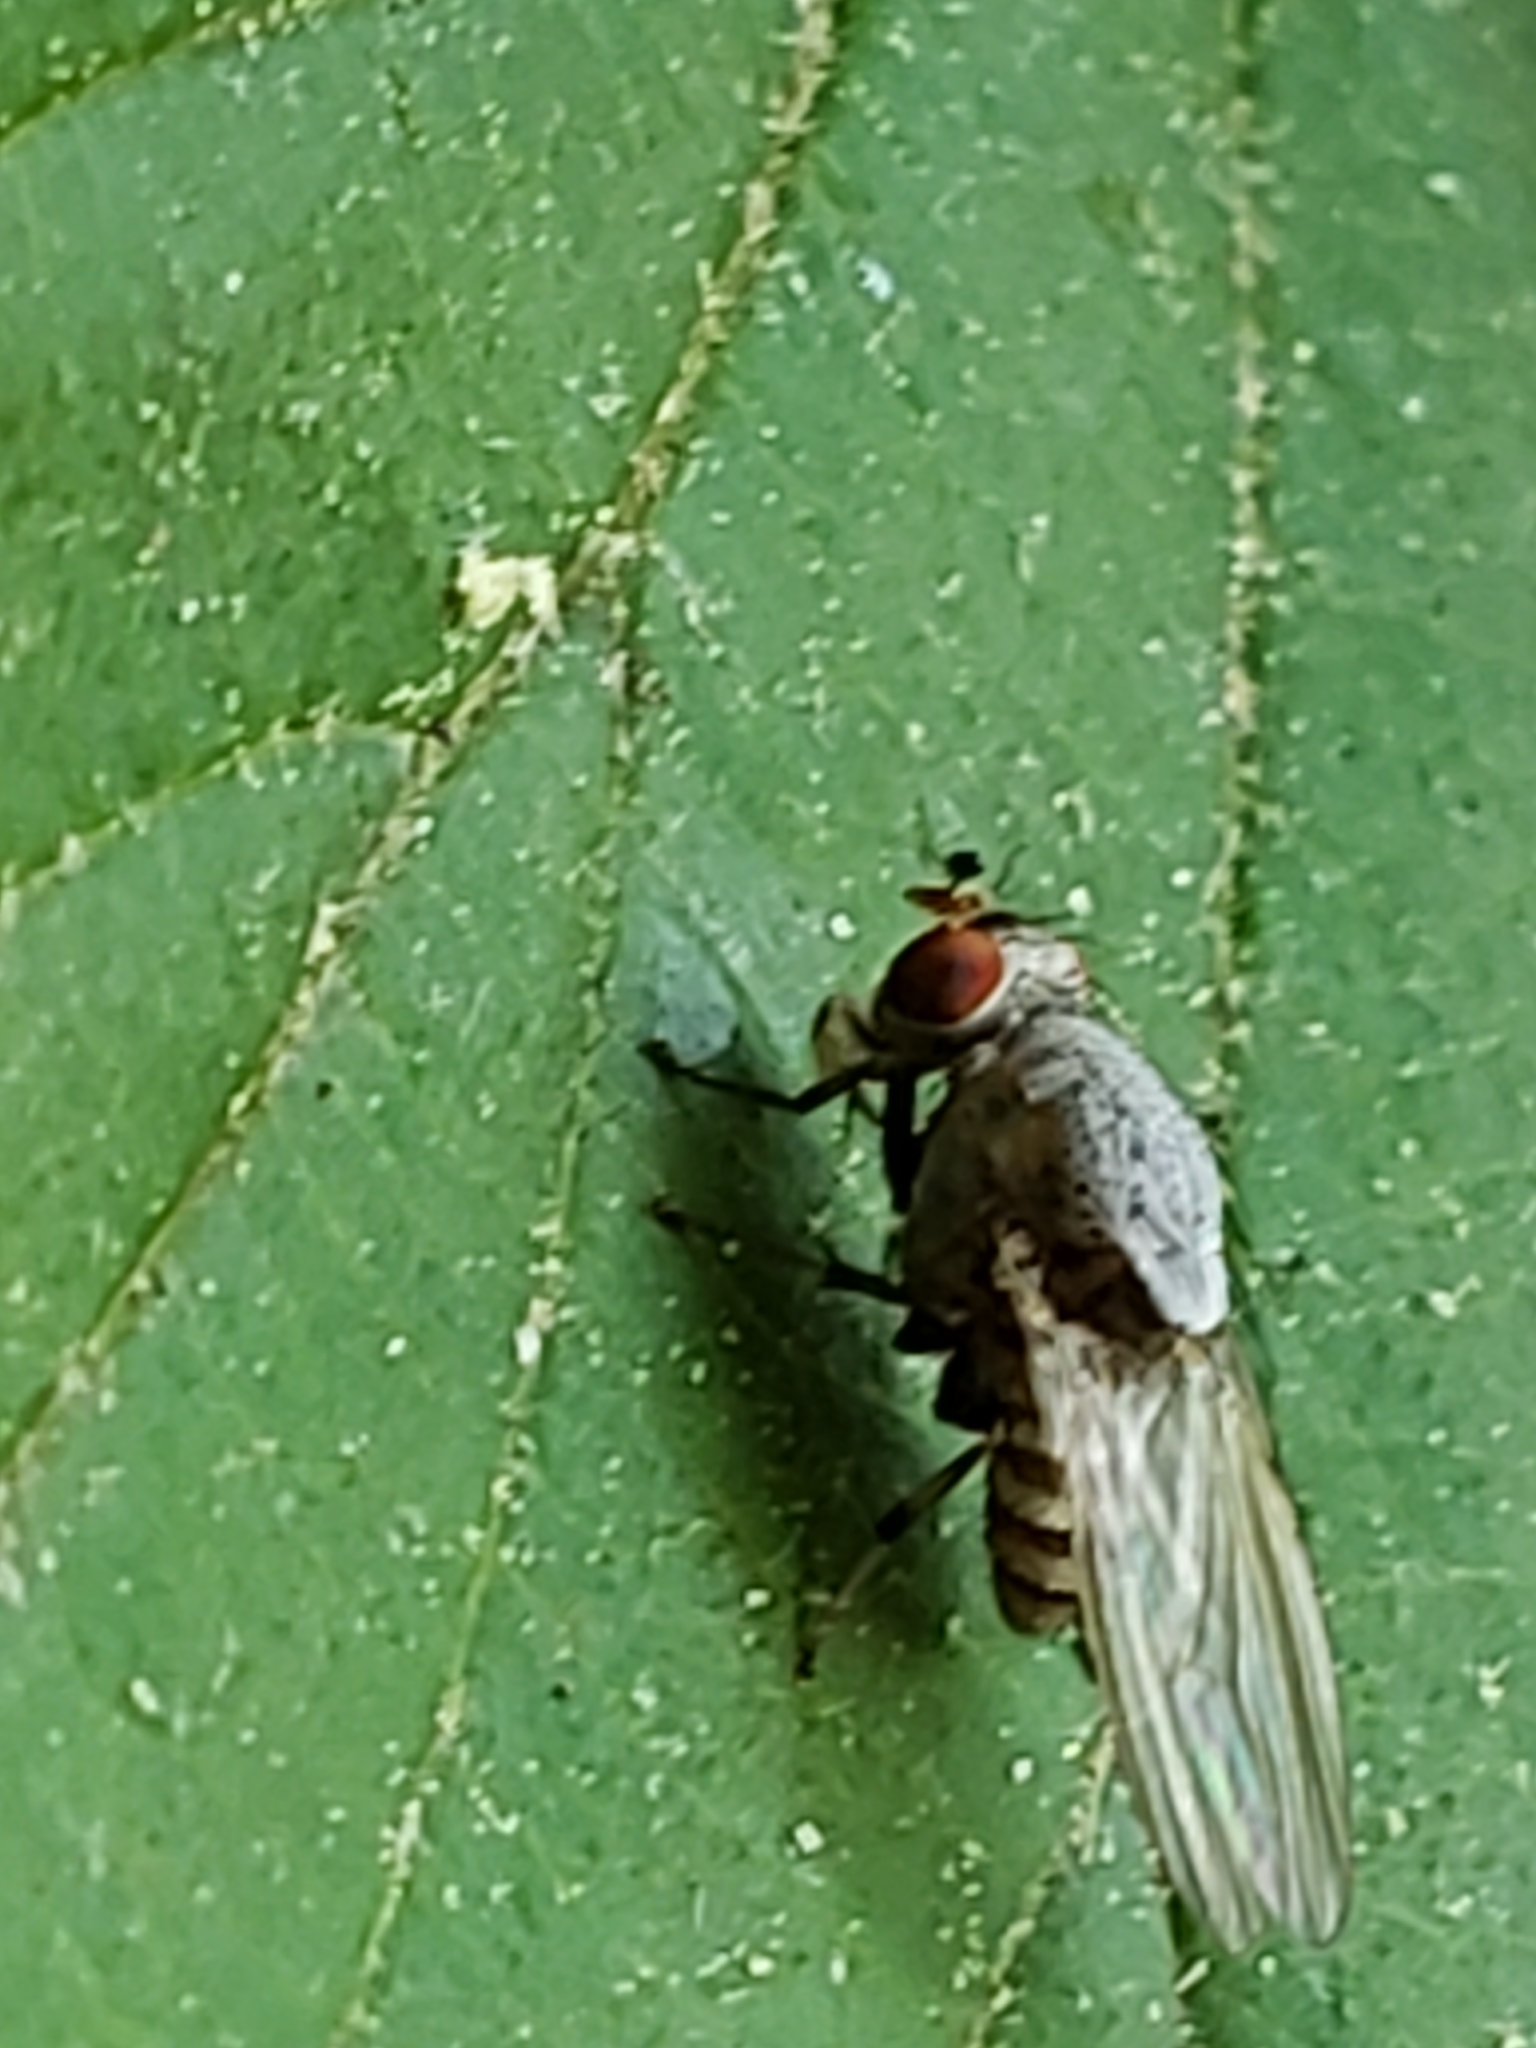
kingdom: Animalia
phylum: Arthropoda
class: Insecta
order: Diptera
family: Lauxaniidae
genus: Minettia
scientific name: Minettia magna
